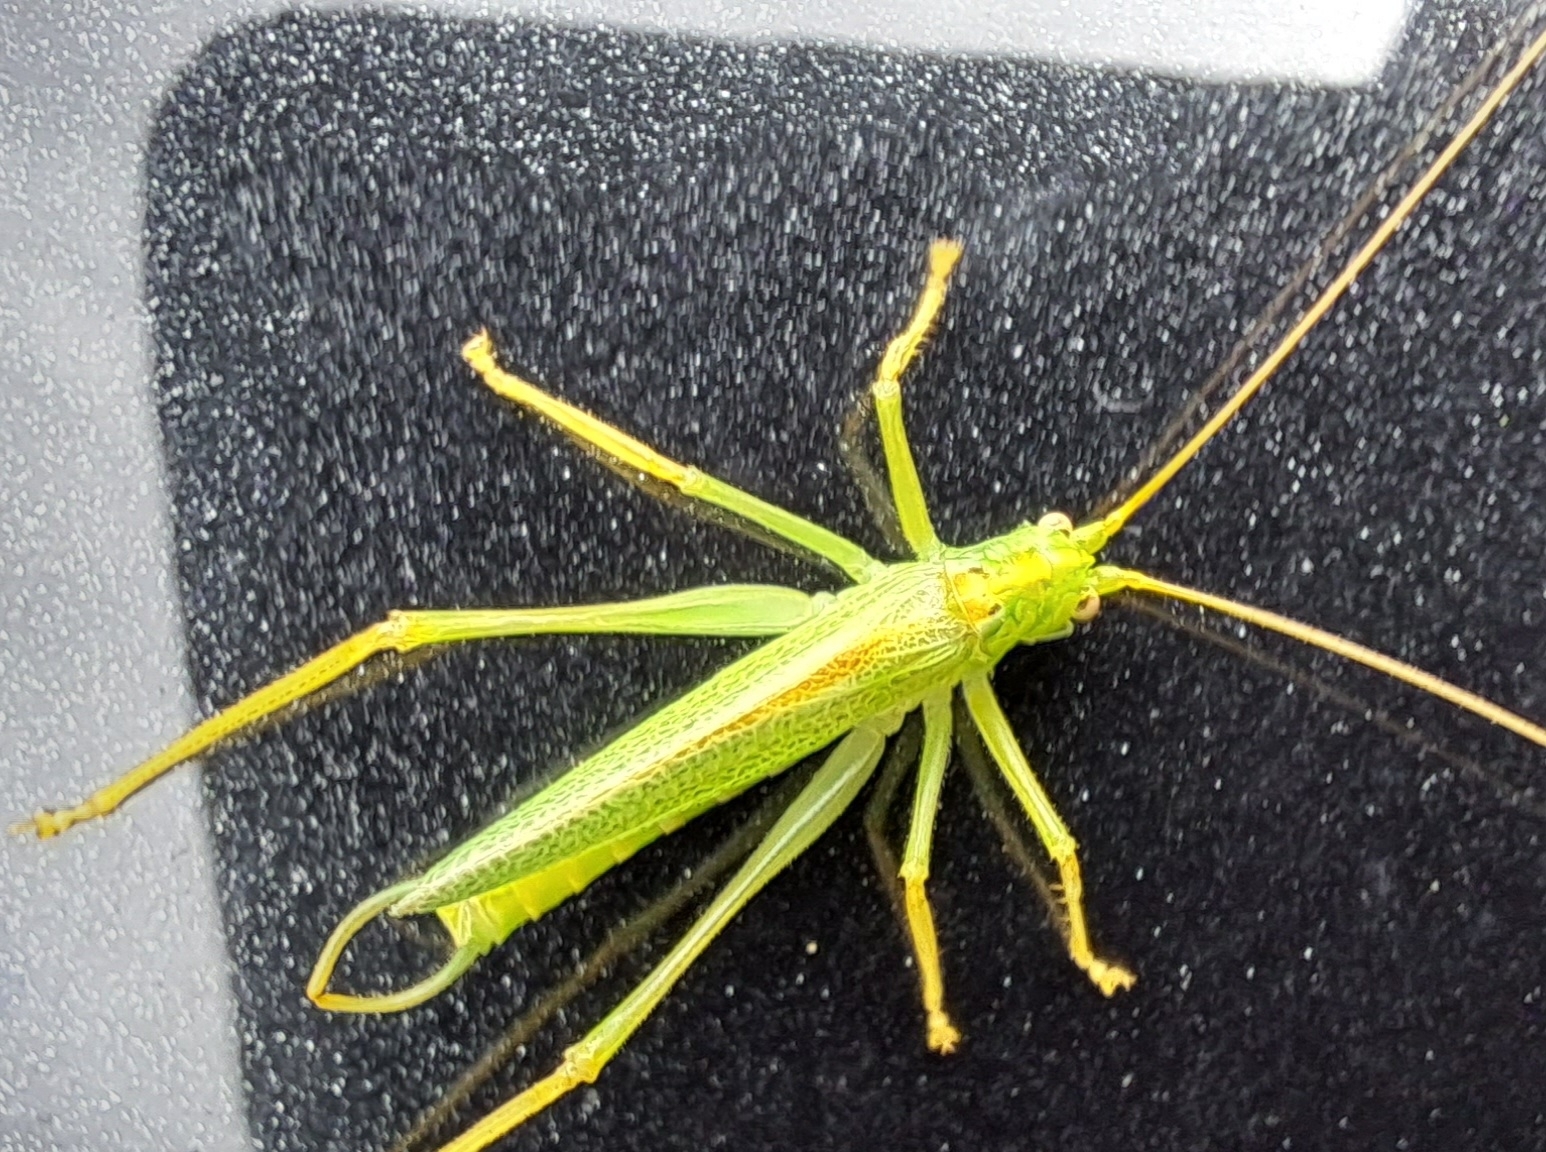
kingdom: Animalia
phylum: Arthropoda
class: Insecta
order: Orthoptera
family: Tettigoniidae
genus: Meconema
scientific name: Meconema thalassinum
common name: Oak bush-cricket
